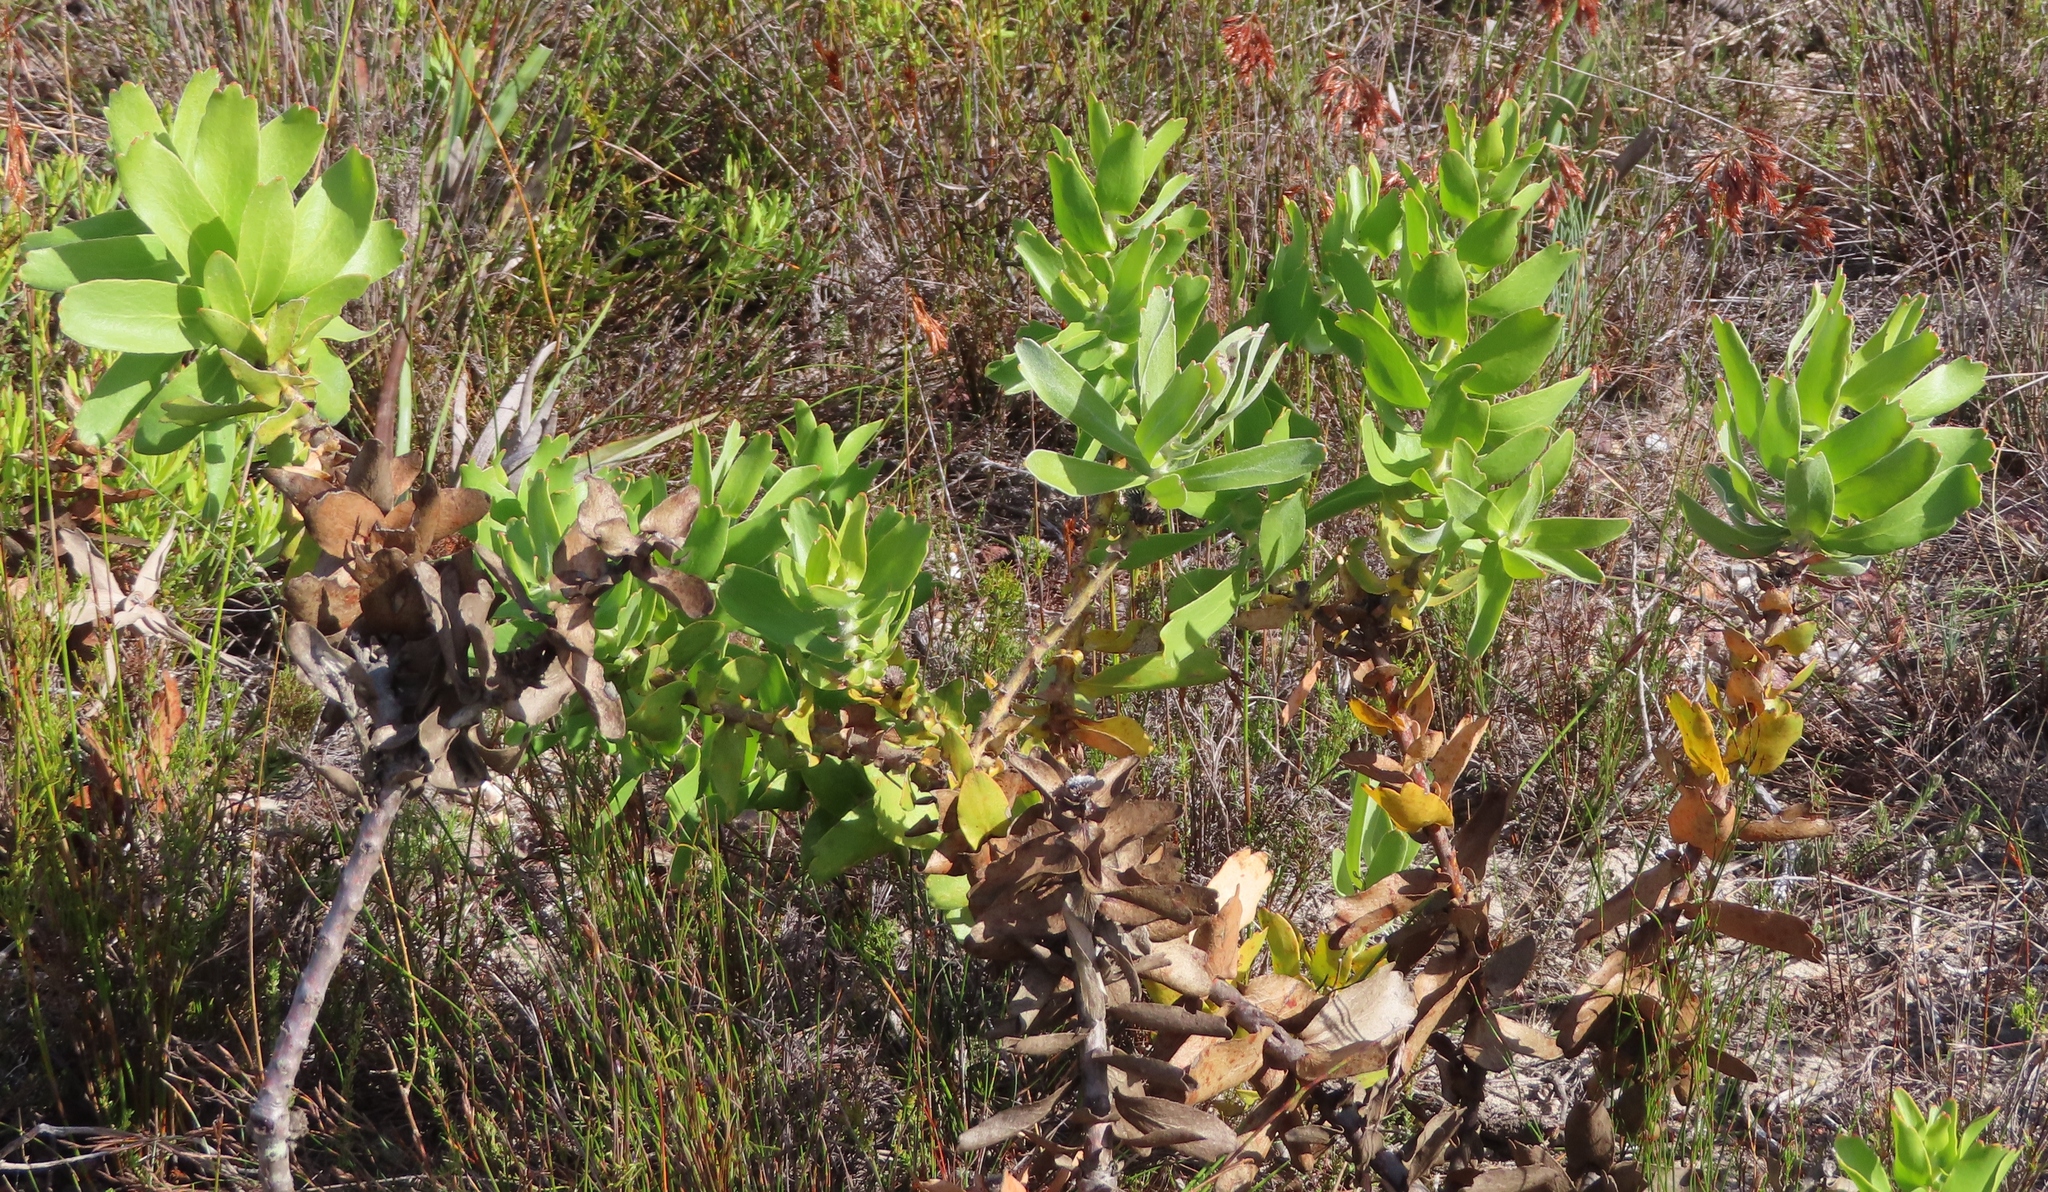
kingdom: Plantae
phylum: Tracheophyta
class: Magnoliopsida
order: Proteales
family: Proteaceae
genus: Leucospermum
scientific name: Leucospermum cordifolium
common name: Red pincushion-protea
